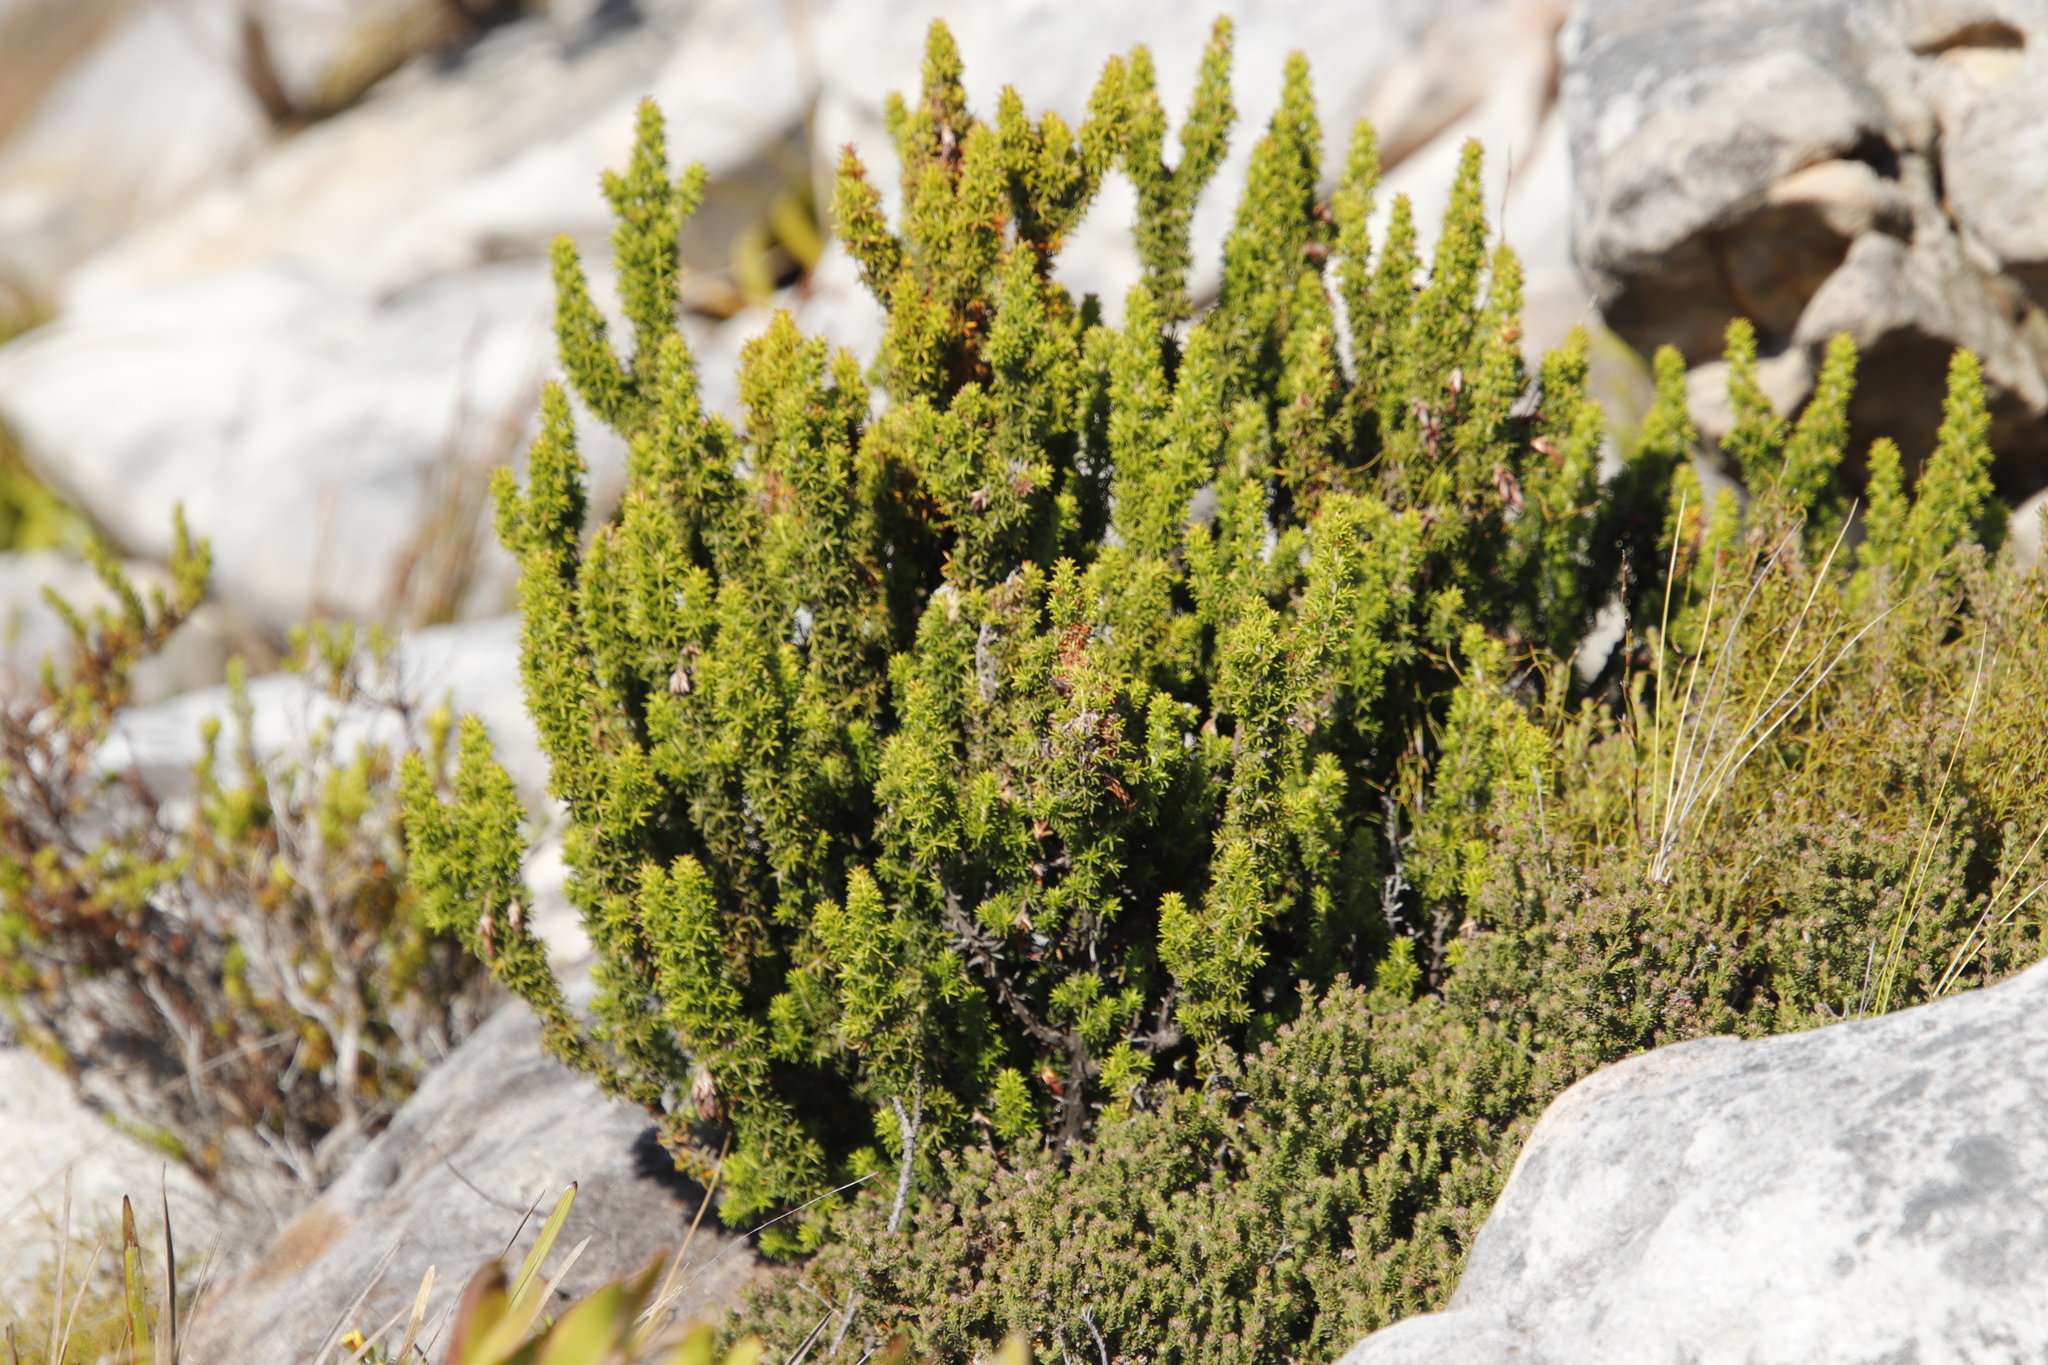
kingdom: Plantae
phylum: Tracheophyta
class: Magnoliopsida
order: Ericales
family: Ericaceae
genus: Erica
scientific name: Erica coccinea
